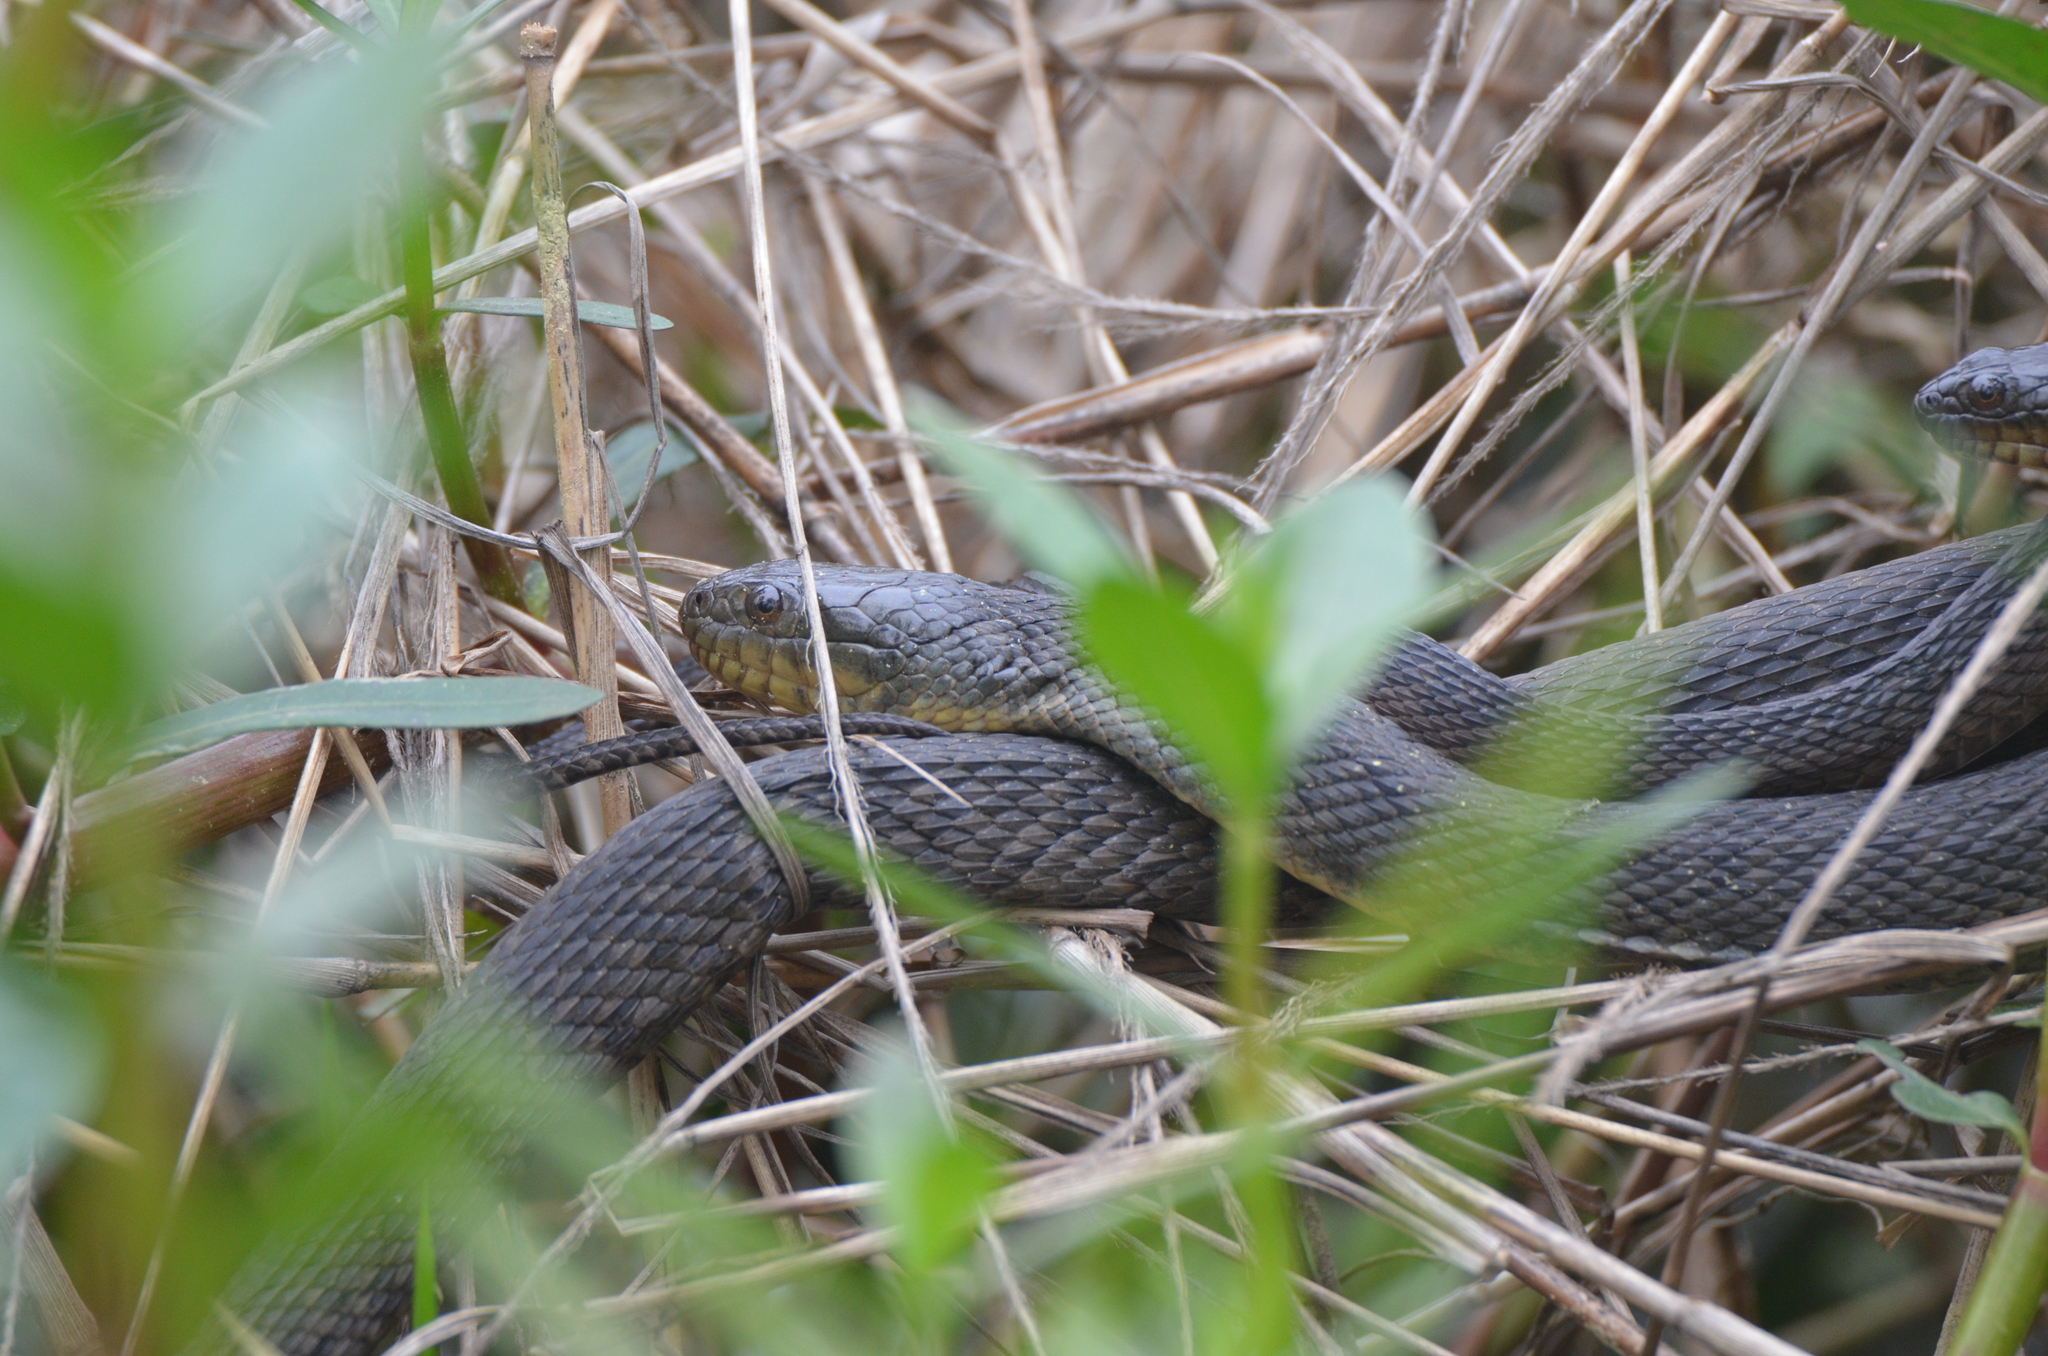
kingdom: Animalia
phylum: Chordata
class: Squamata
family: Colubridae
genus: Nerodia
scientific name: Nerodia cyclopion
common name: Mississippi green water snake
